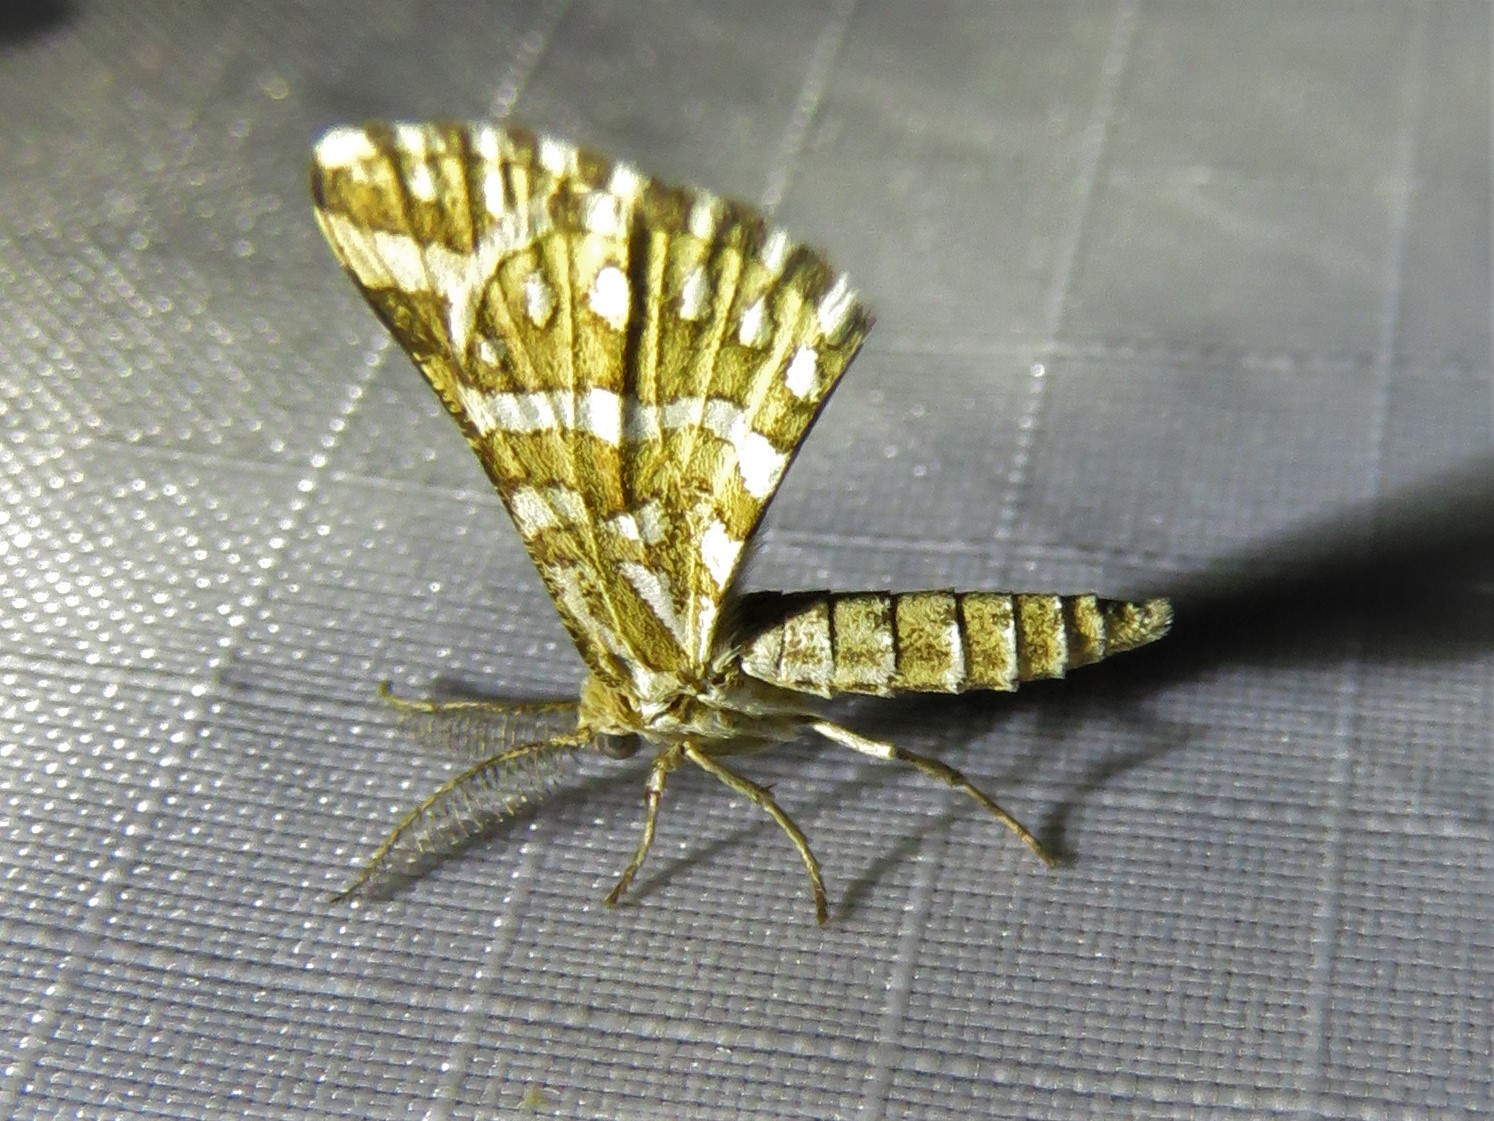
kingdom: Animalia
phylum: Arthropoda
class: Insecta
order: Lepidoptera
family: Geometridae
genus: Narraga
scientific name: Narraga fimetaria
